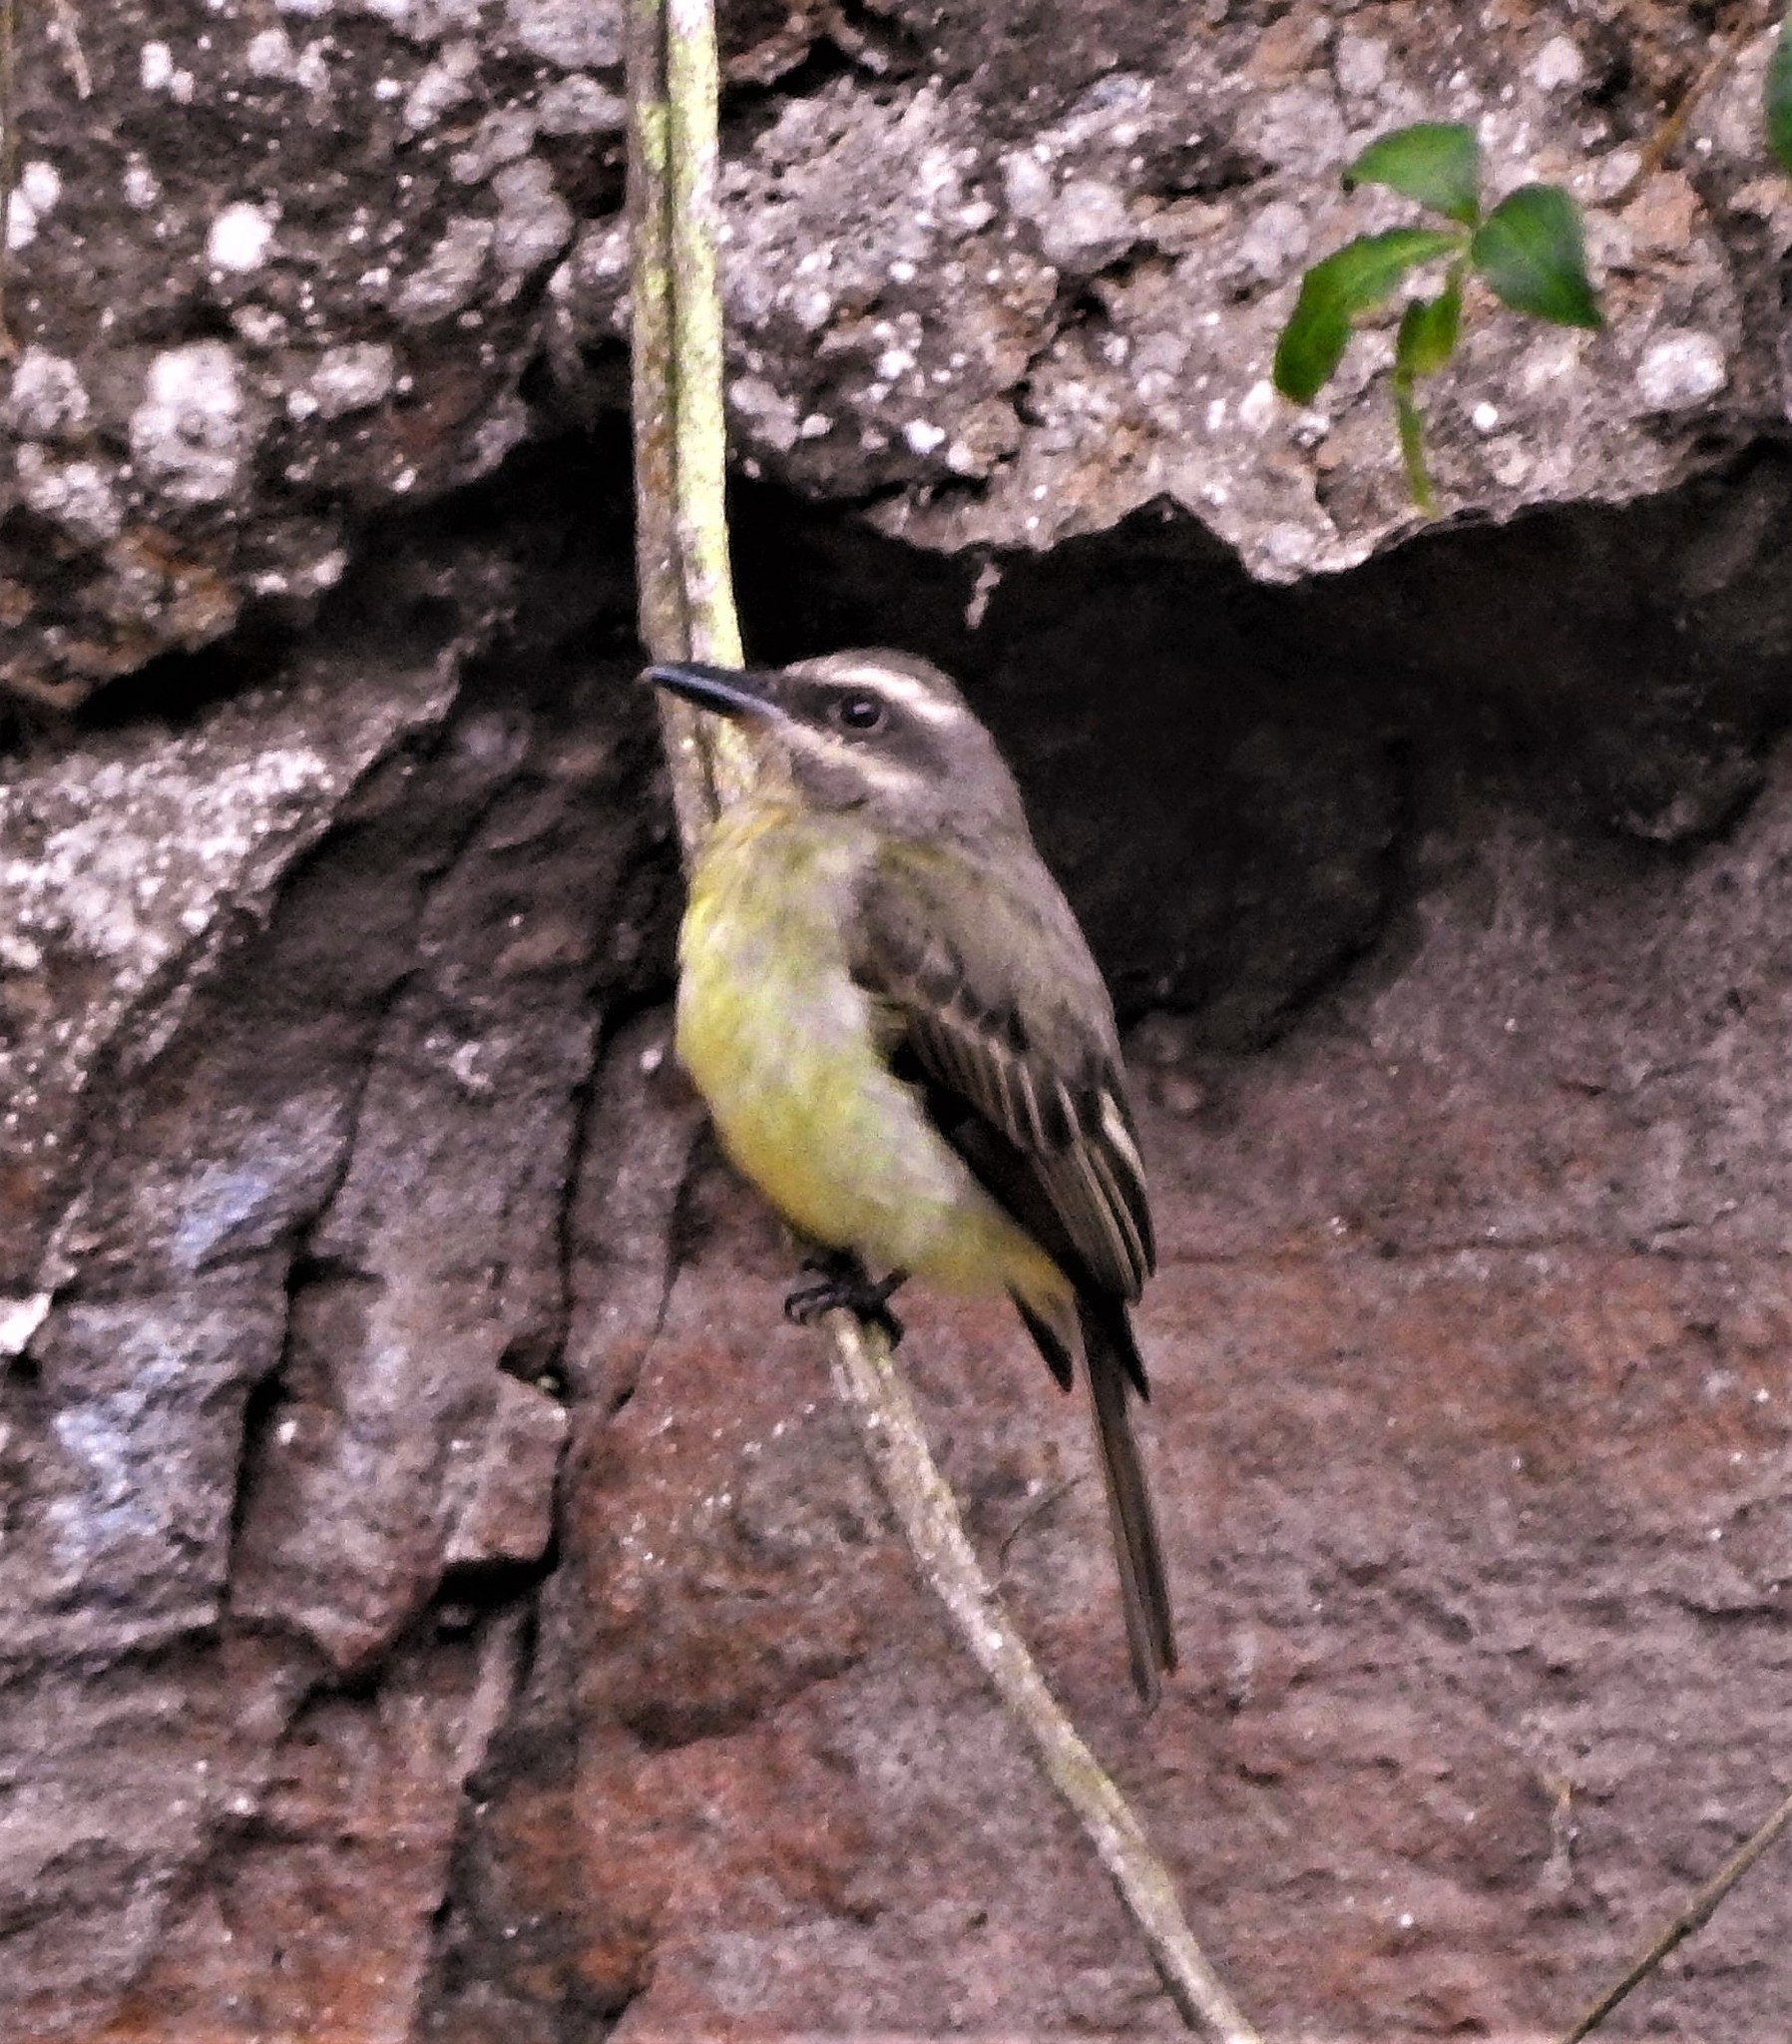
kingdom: Animalia
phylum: Chordata
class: Aves
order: Passeriformes
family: Tyrannidae
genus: Myiodynastes
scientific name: Myiodynastes chrysocephalus
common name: Golden-crowned flycatcher
